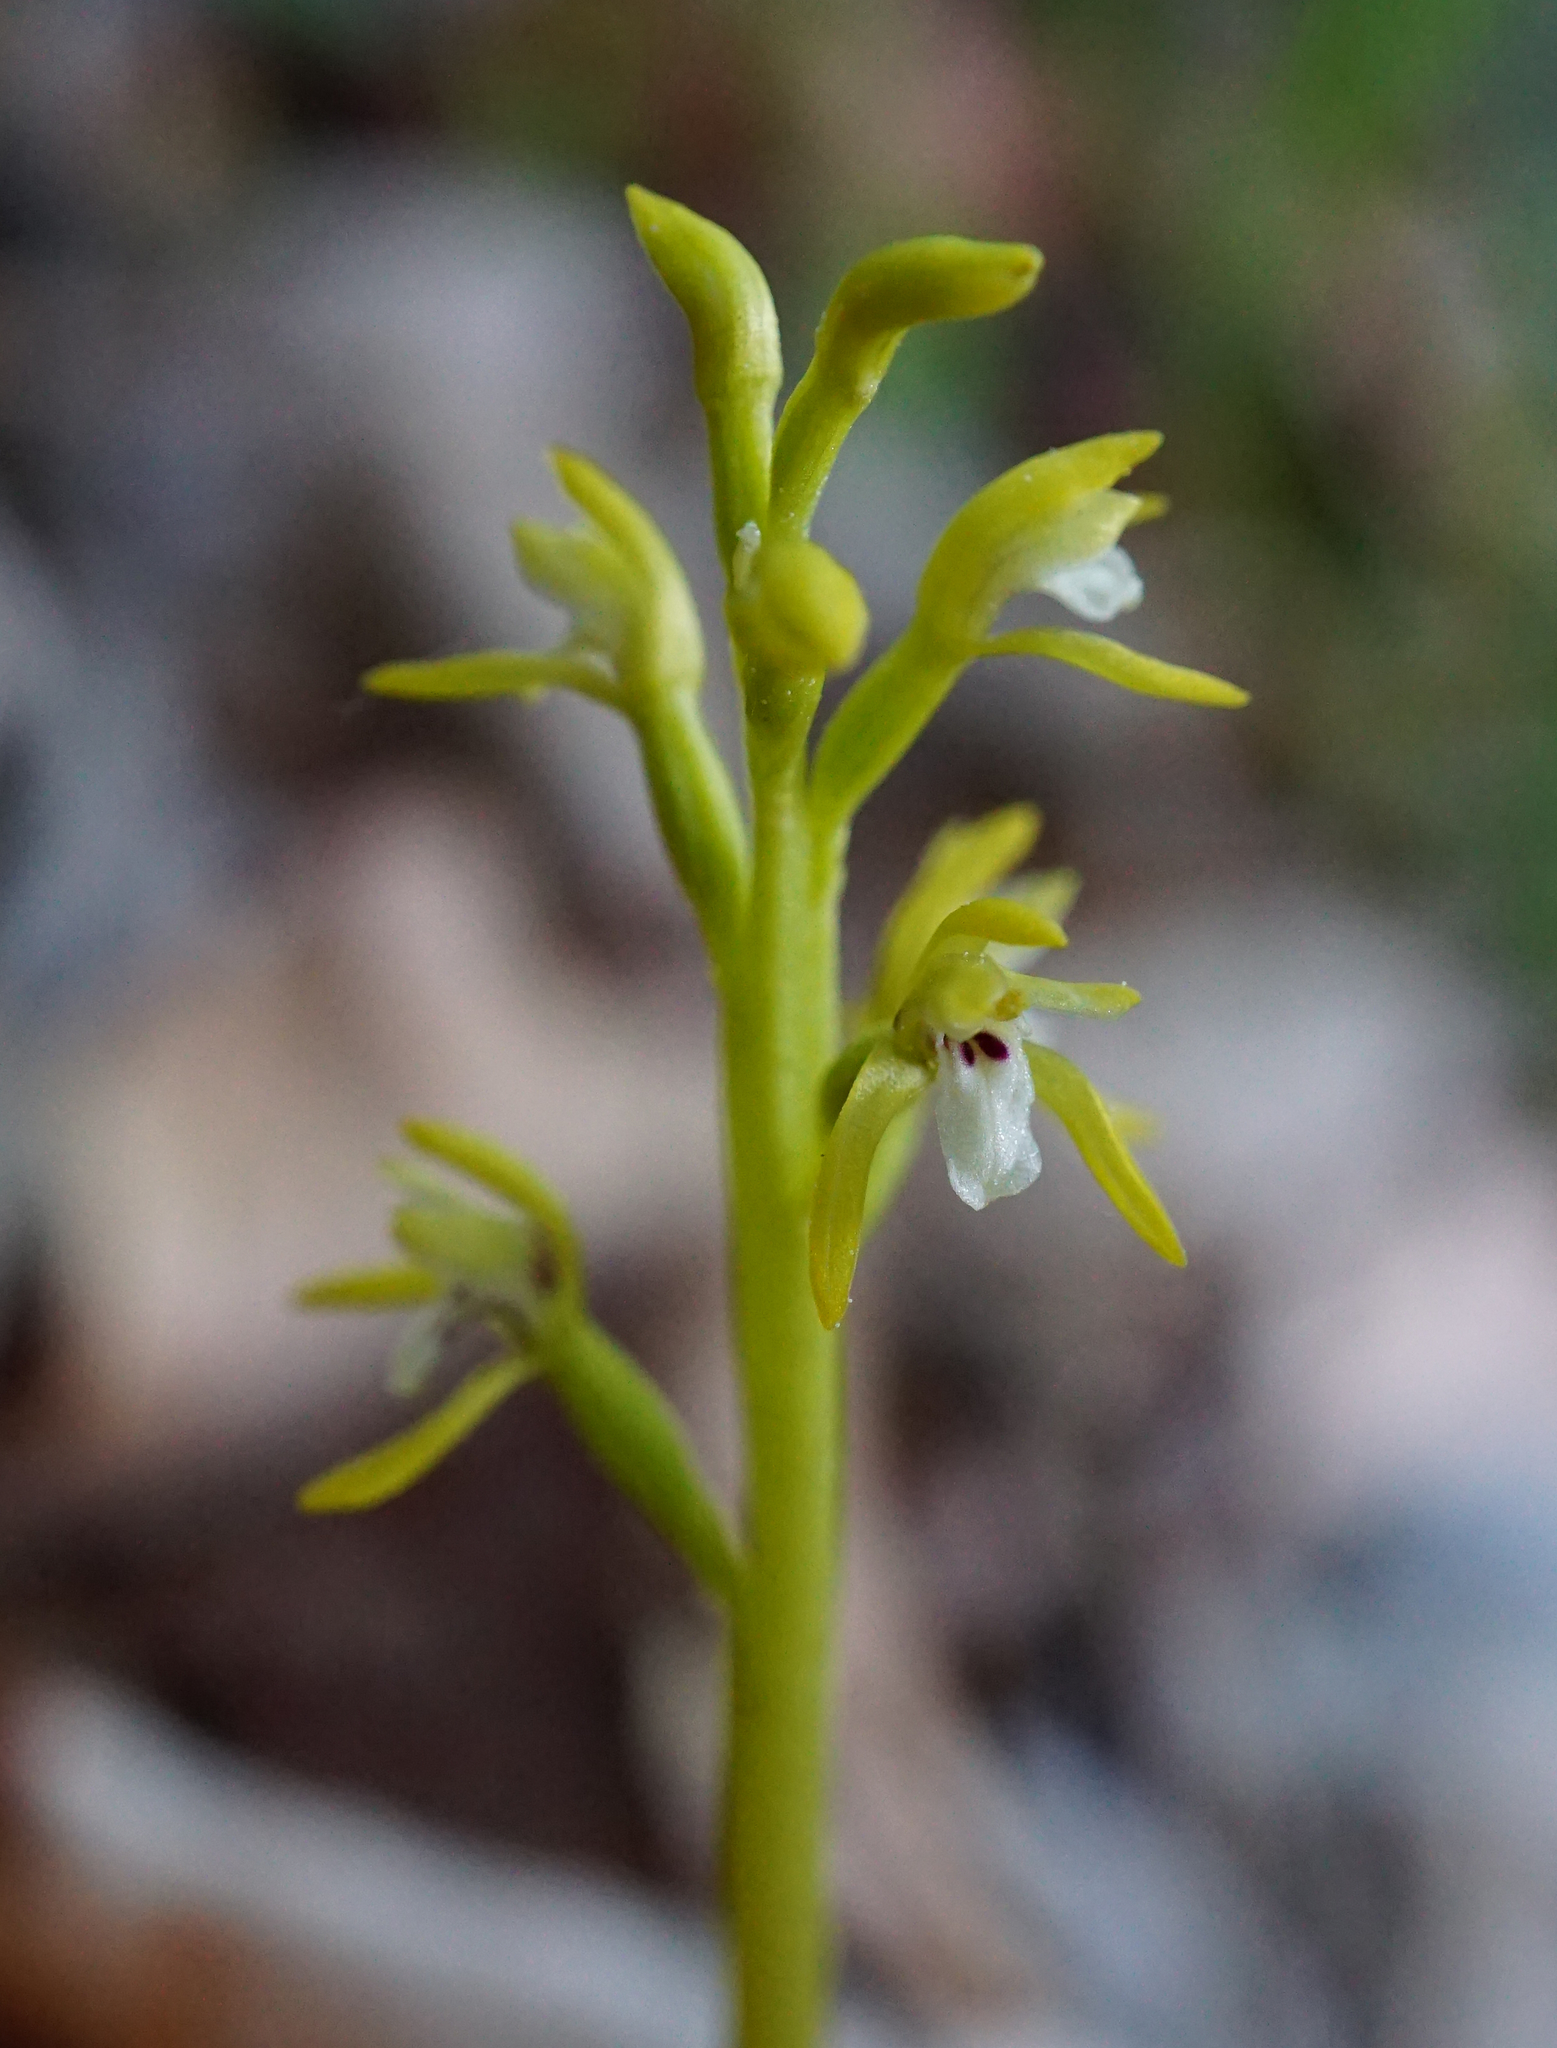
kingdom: Plantae
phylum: Tracheophyta
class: Liliopsida
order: Asparagales
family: Orchidaceae
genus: Corallorhiza
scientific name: Corallorhiza trifida
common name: Yellow coralroot
